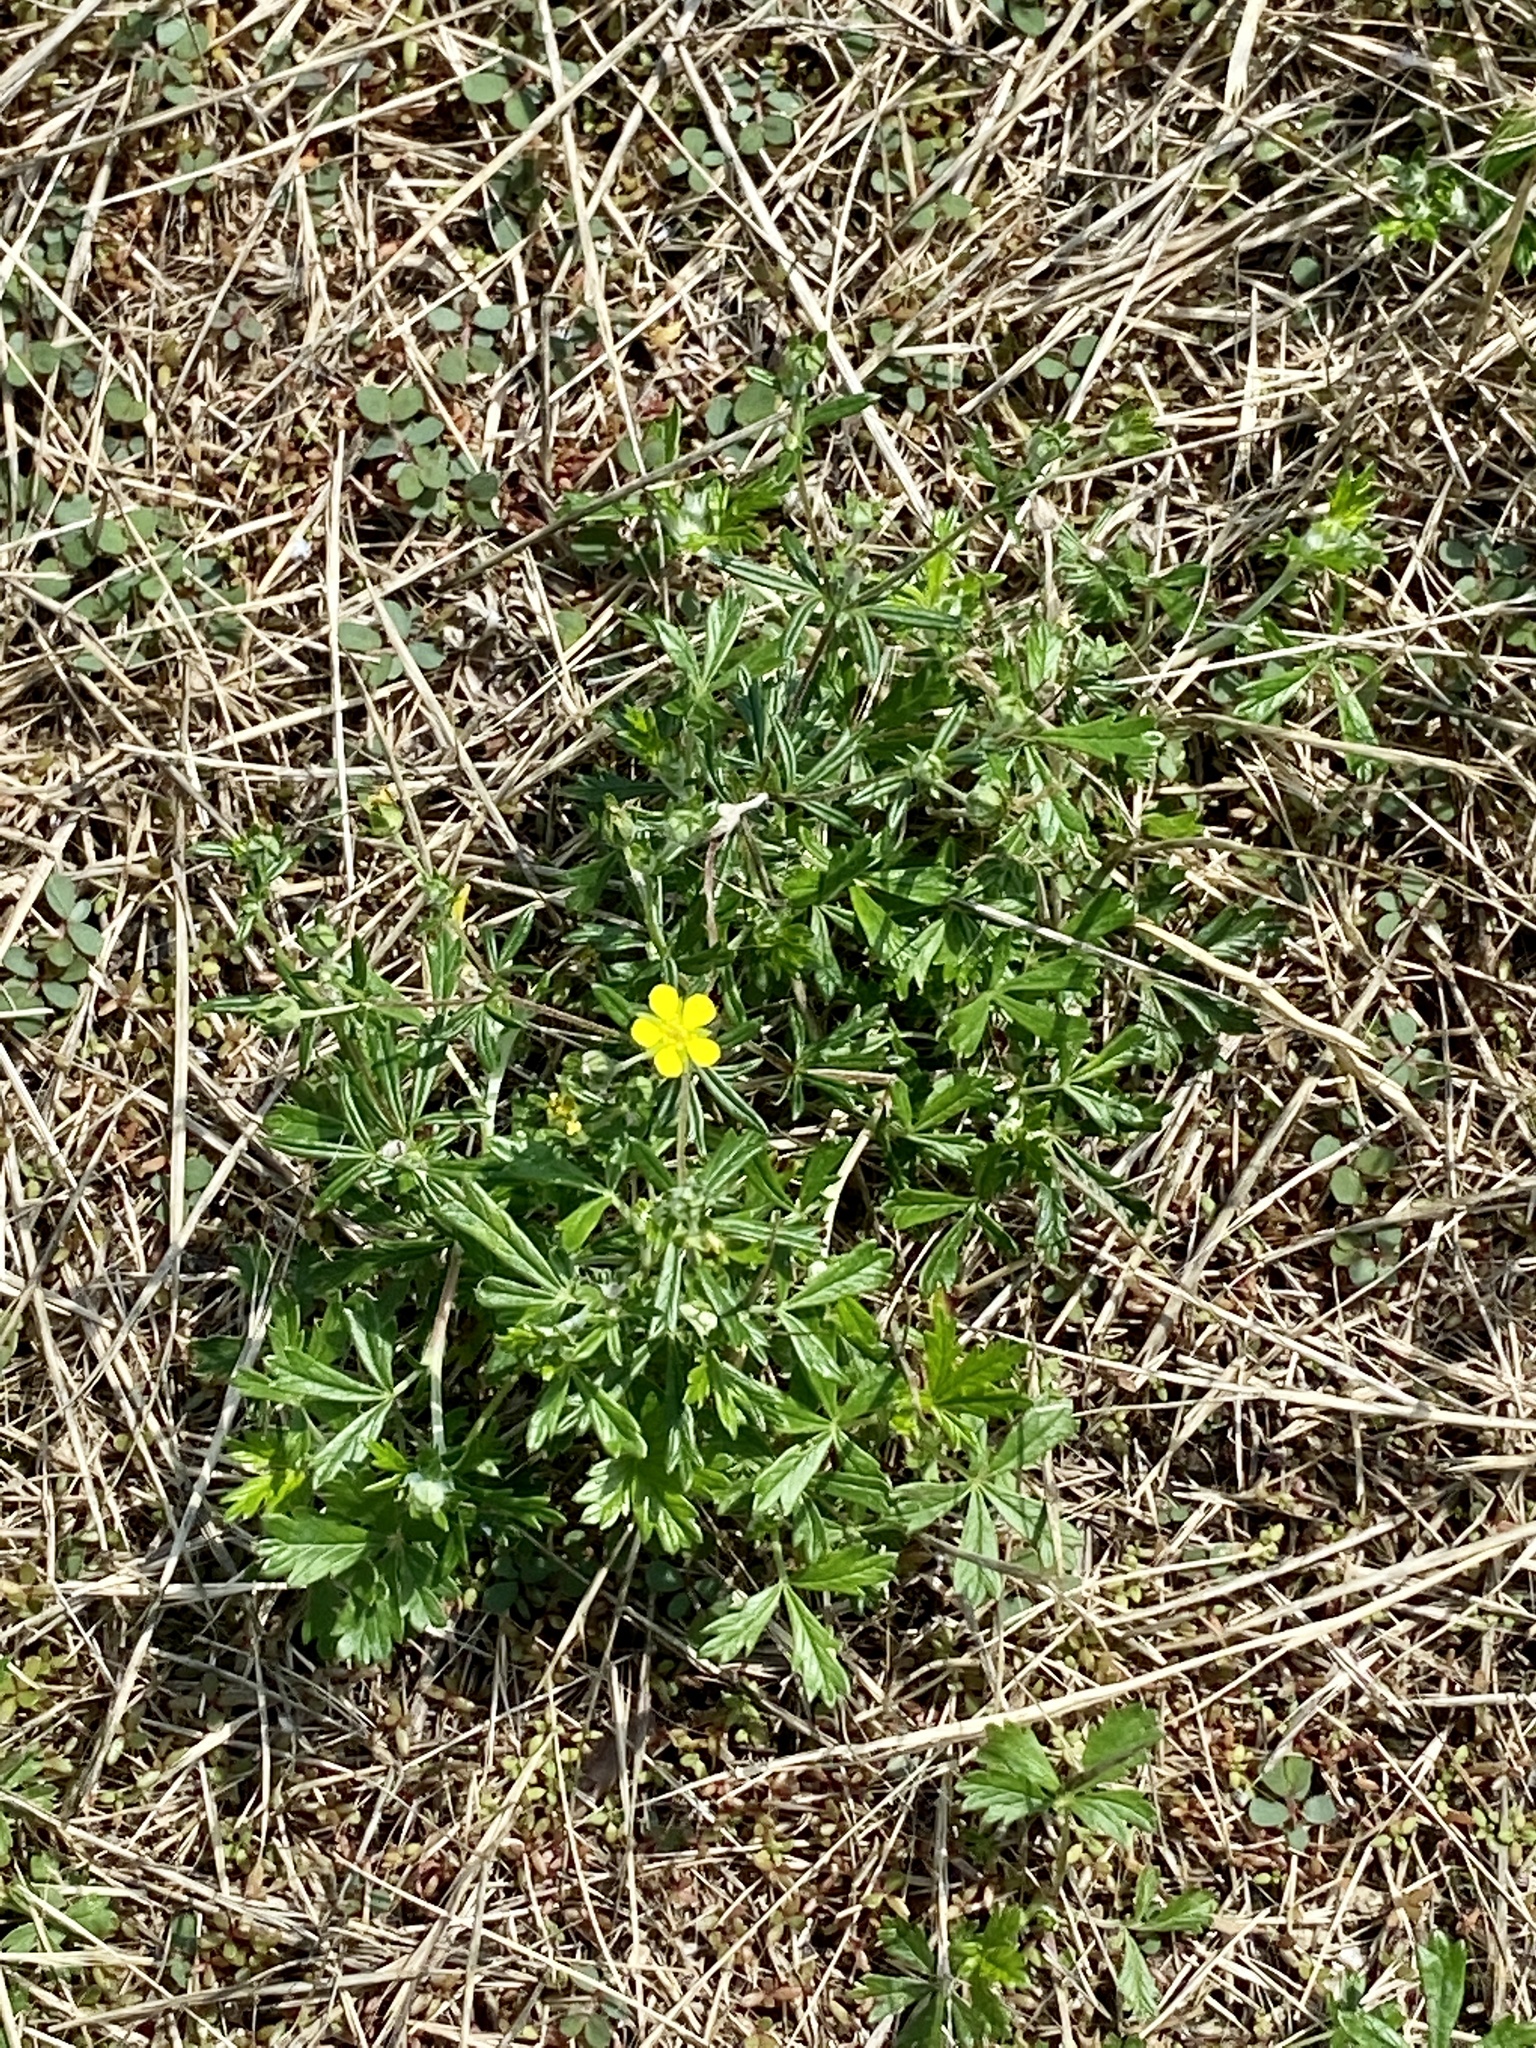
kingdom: Plantae
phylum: Tracheophyta
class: Magnoliopsida
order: Rosales
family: Rosaceae
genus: Potentilla
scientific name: Potentilla argentea
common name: Hoary cinquefoil
